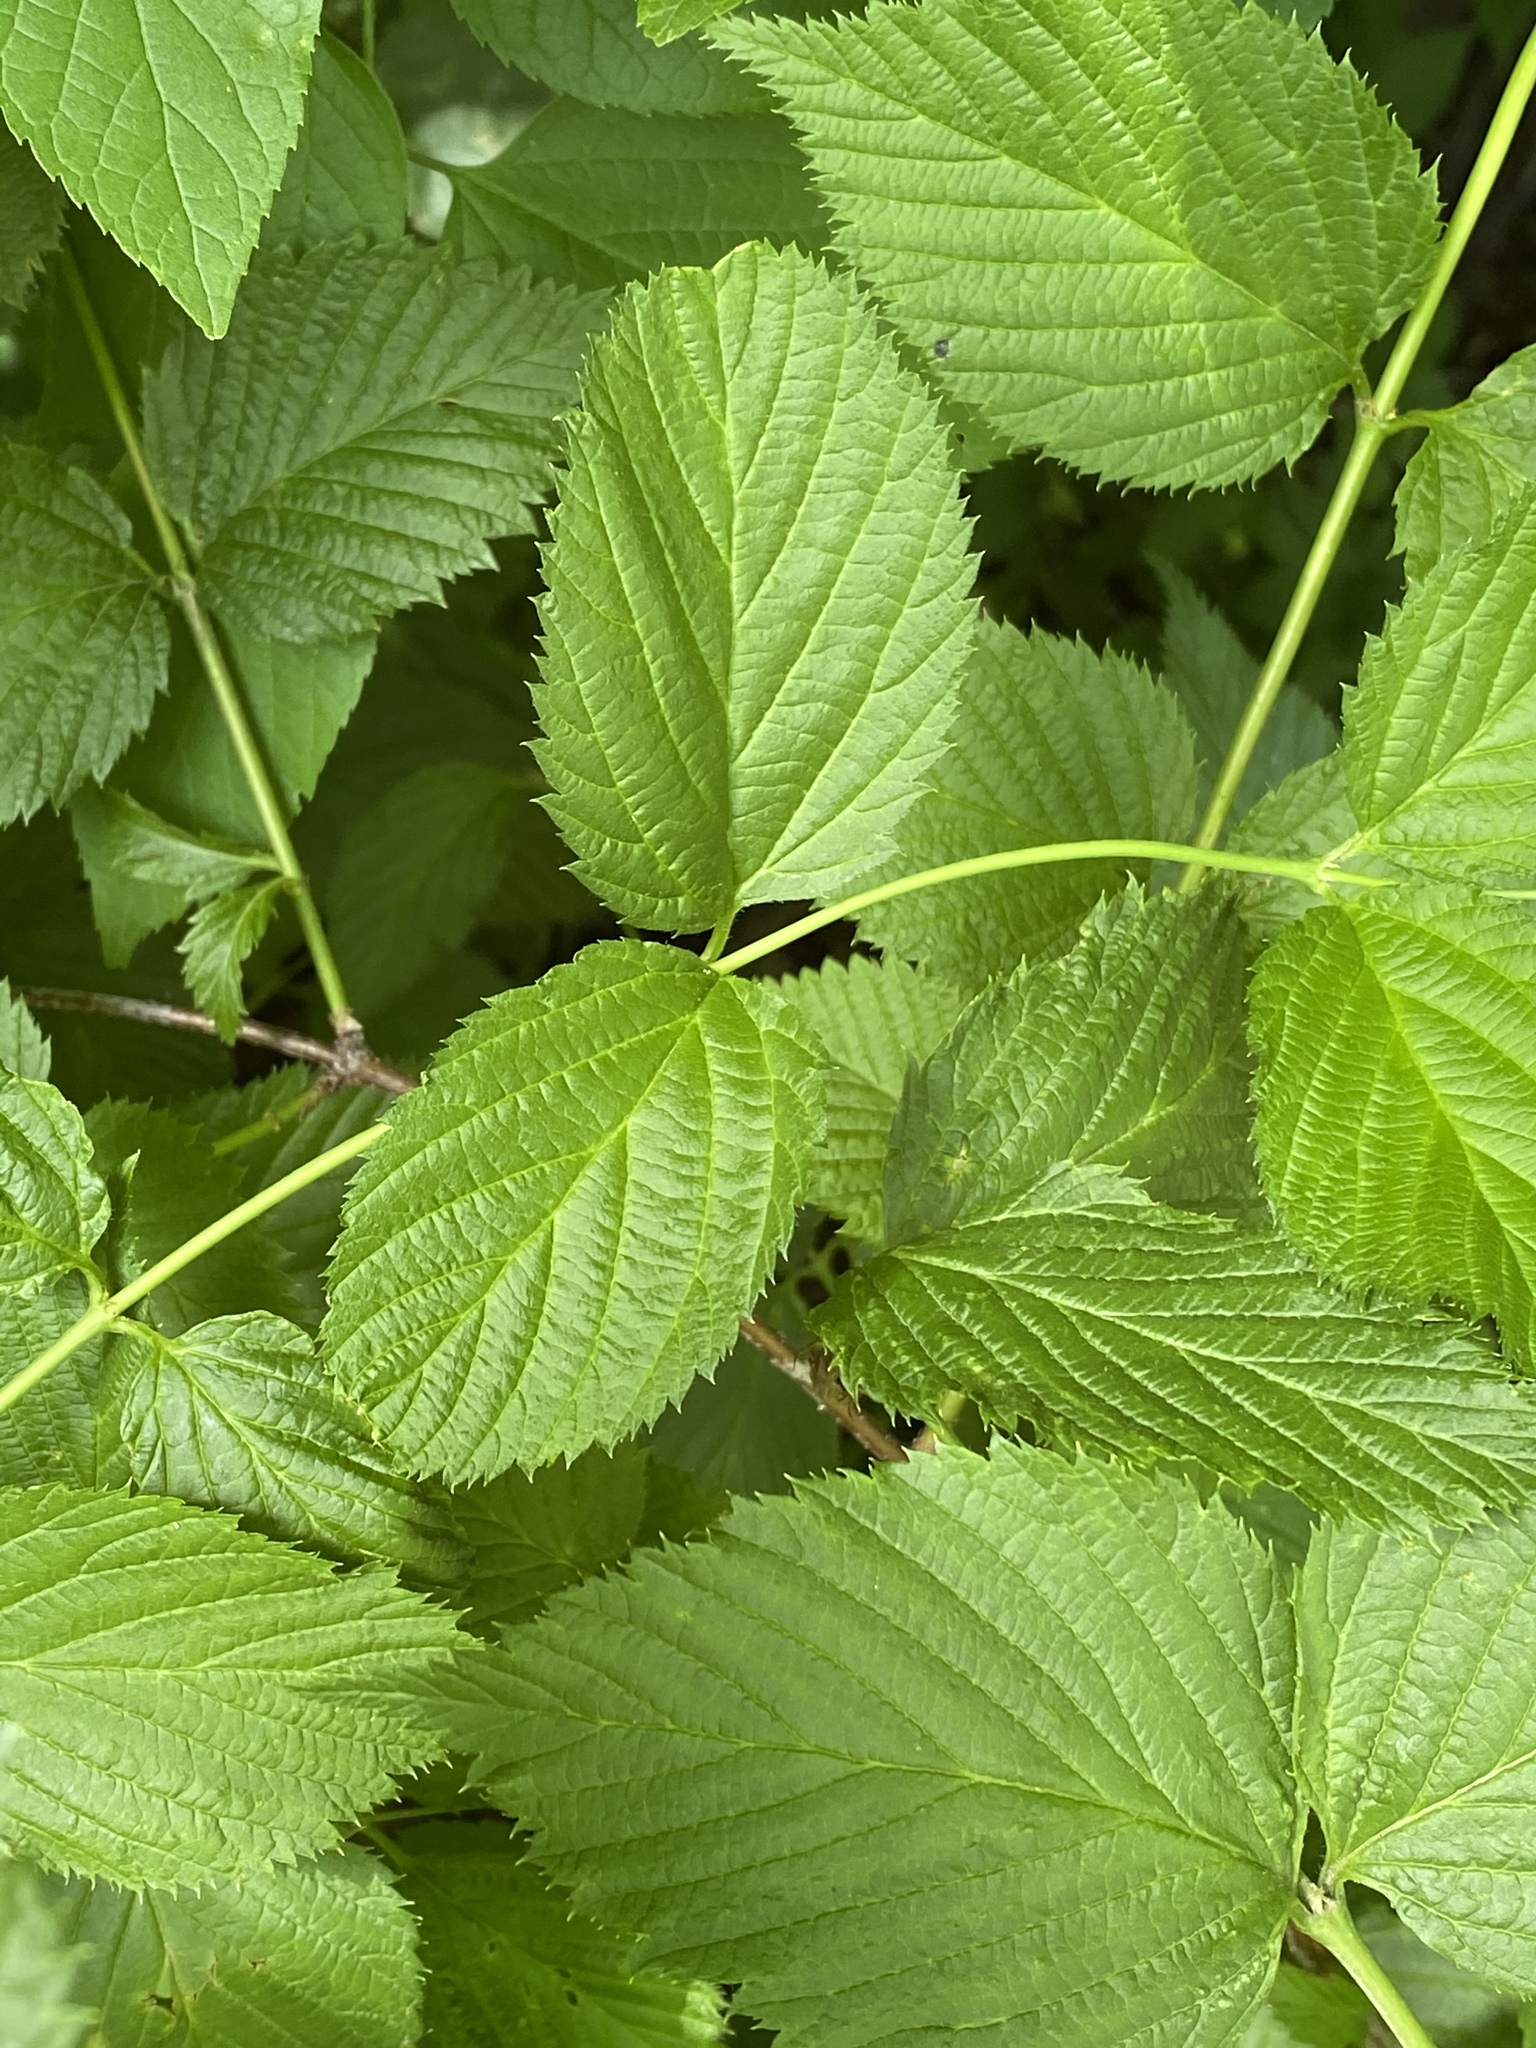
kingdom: Plantae
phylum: Tracheophyta
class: Magnoliopsida
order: Rosales
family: Rosaceae
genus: Rhodotypos
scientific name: Rhodotypos scandens
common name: Jetbead
